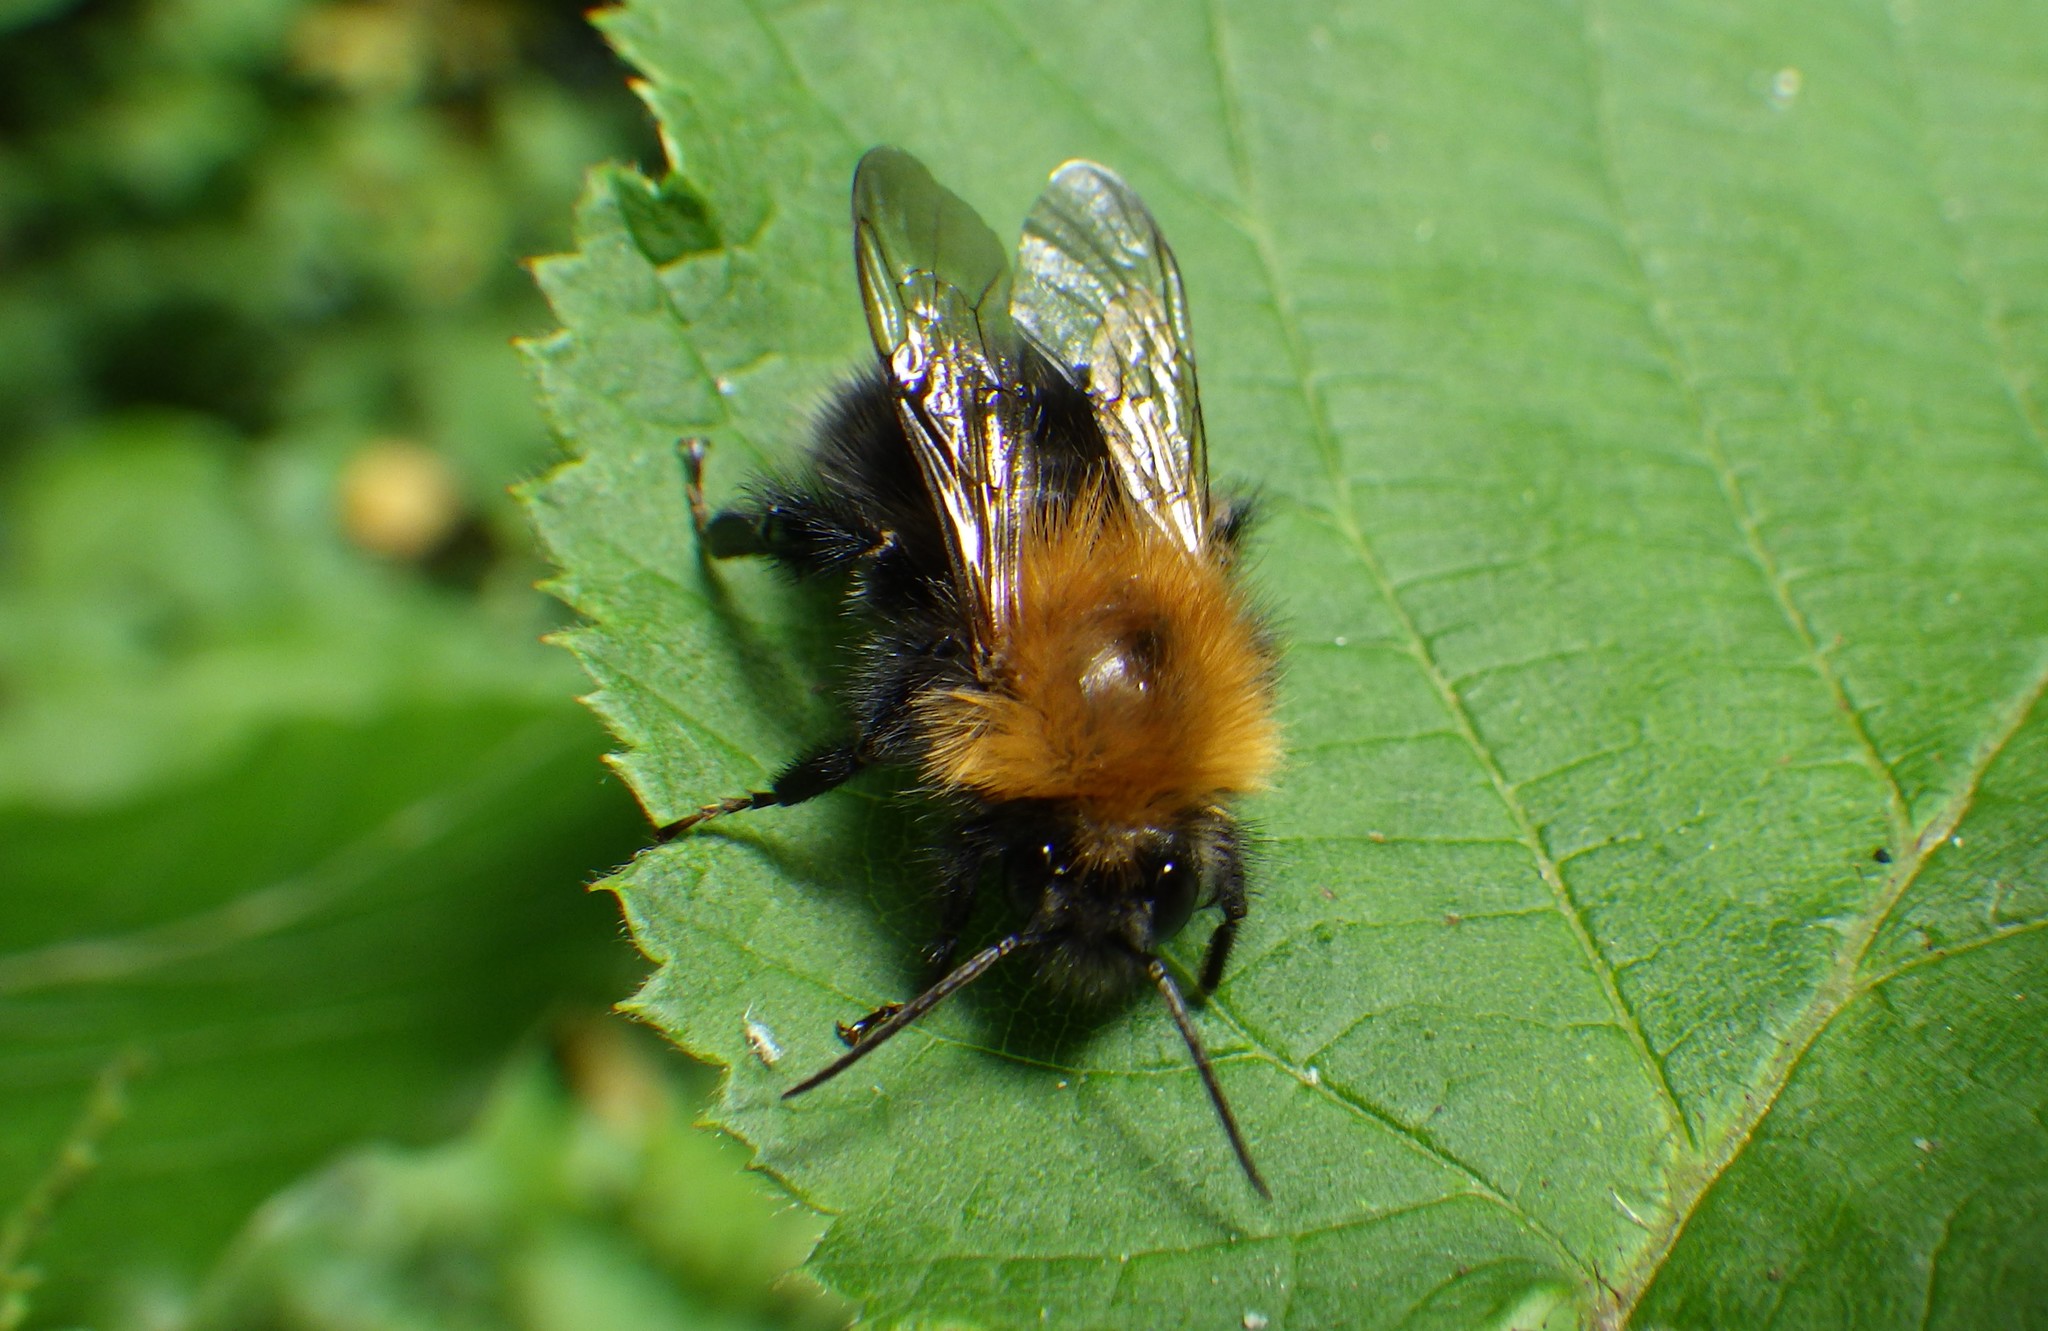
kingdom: Animalia
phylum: Arthropoda
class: Insecta
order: Hymenoptera
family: Apidae
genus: Bombus
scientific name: Bombus hypnorum
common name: New garden bumblebee
